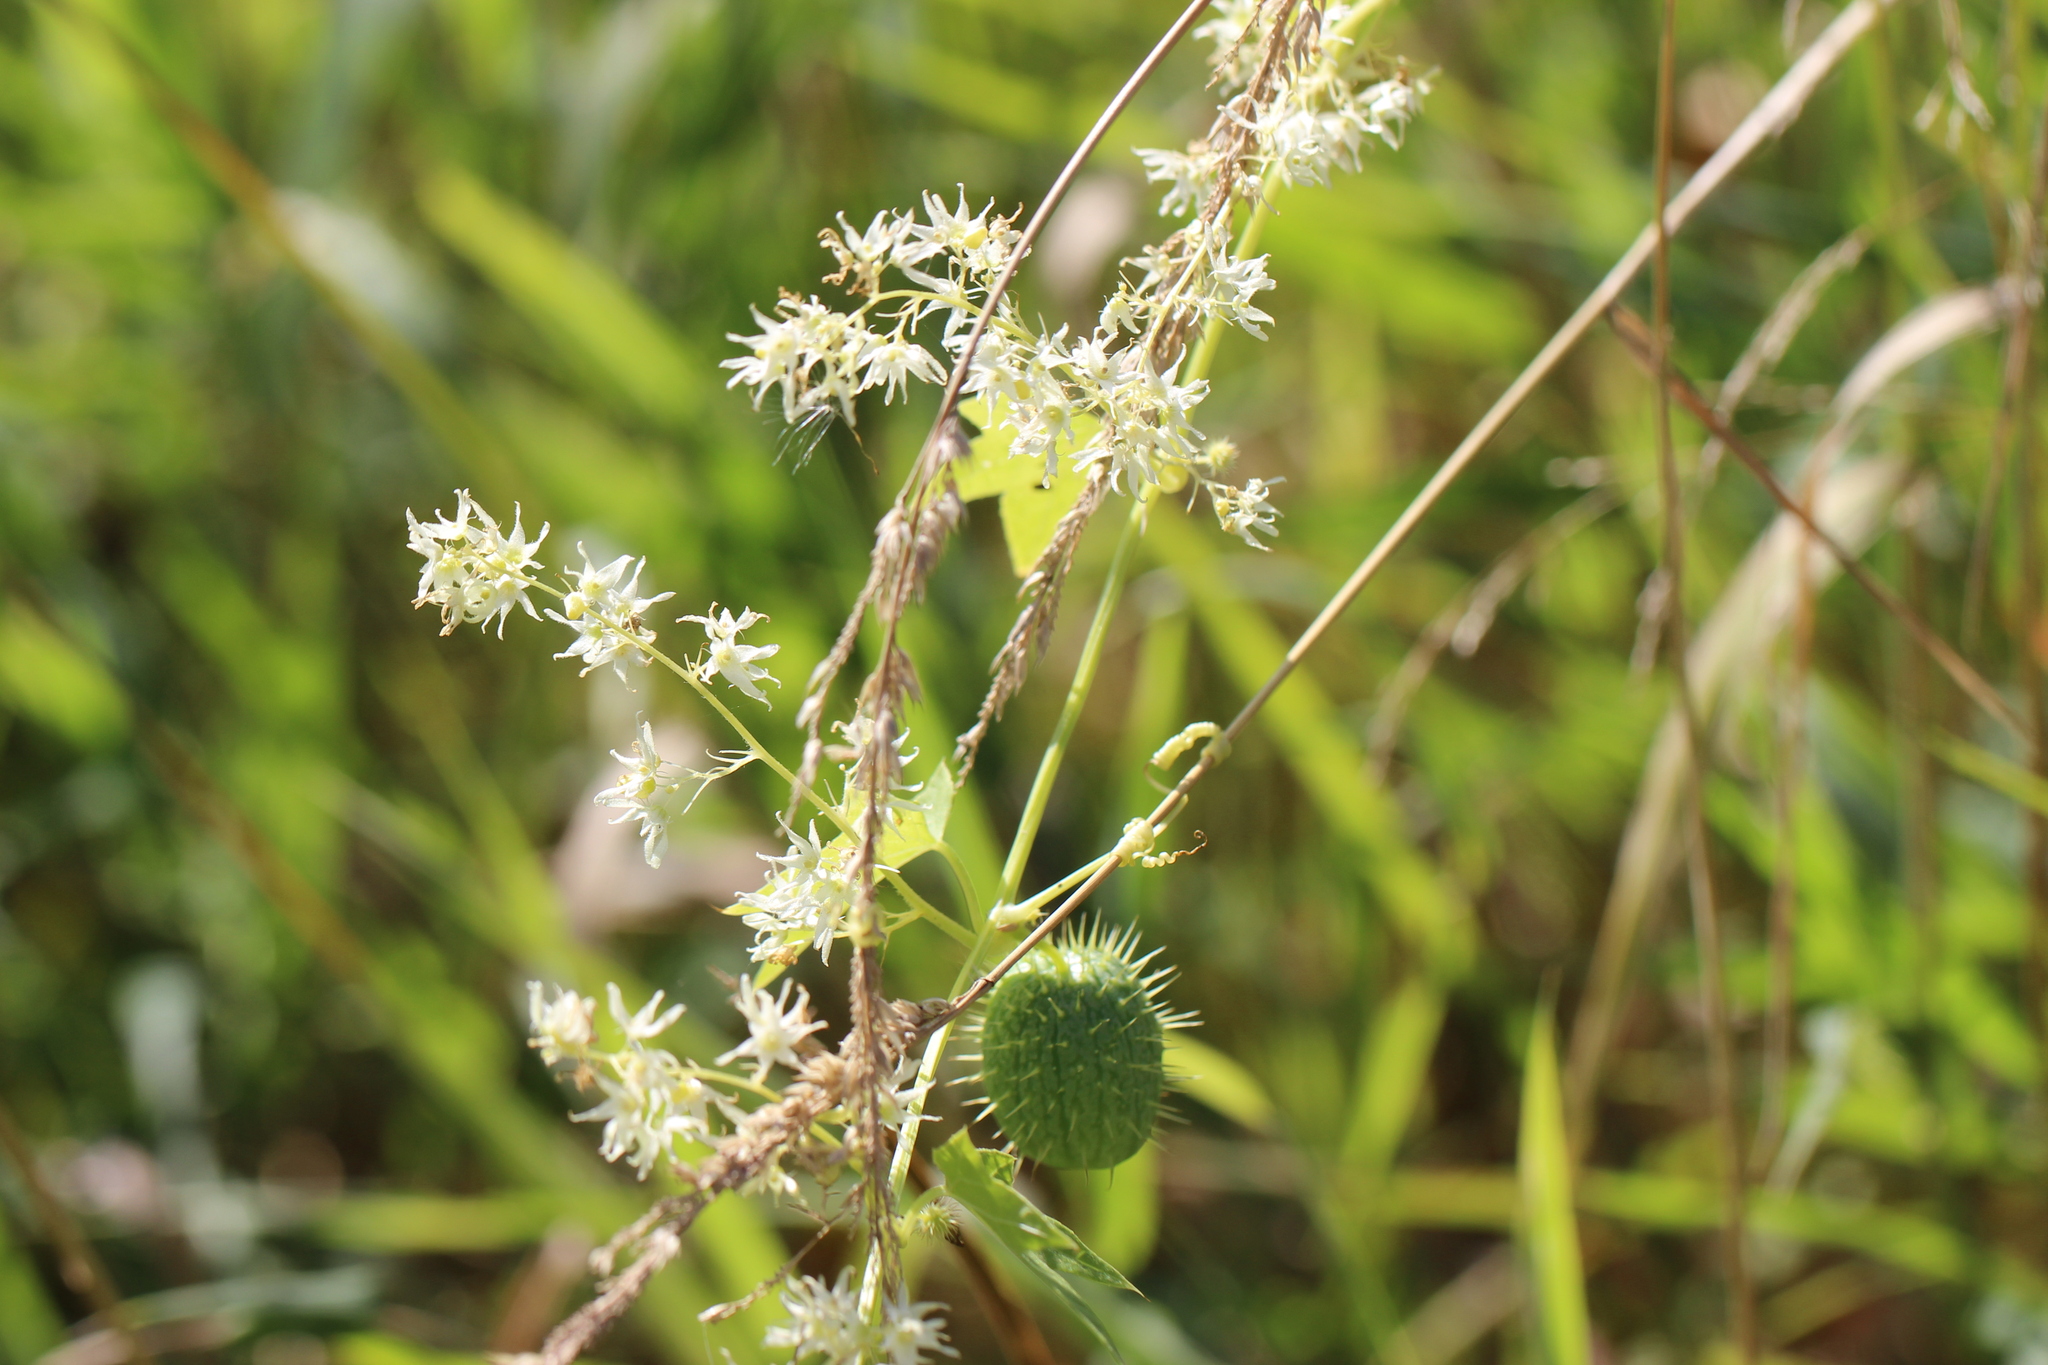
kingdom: Plantae
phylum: Tracheophyta
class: Magnoliopsida
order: Cucurbitales
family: Cucurbitaceae
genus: Echinocystis
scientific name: Echinocystis lobata
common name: Wild cucumber
